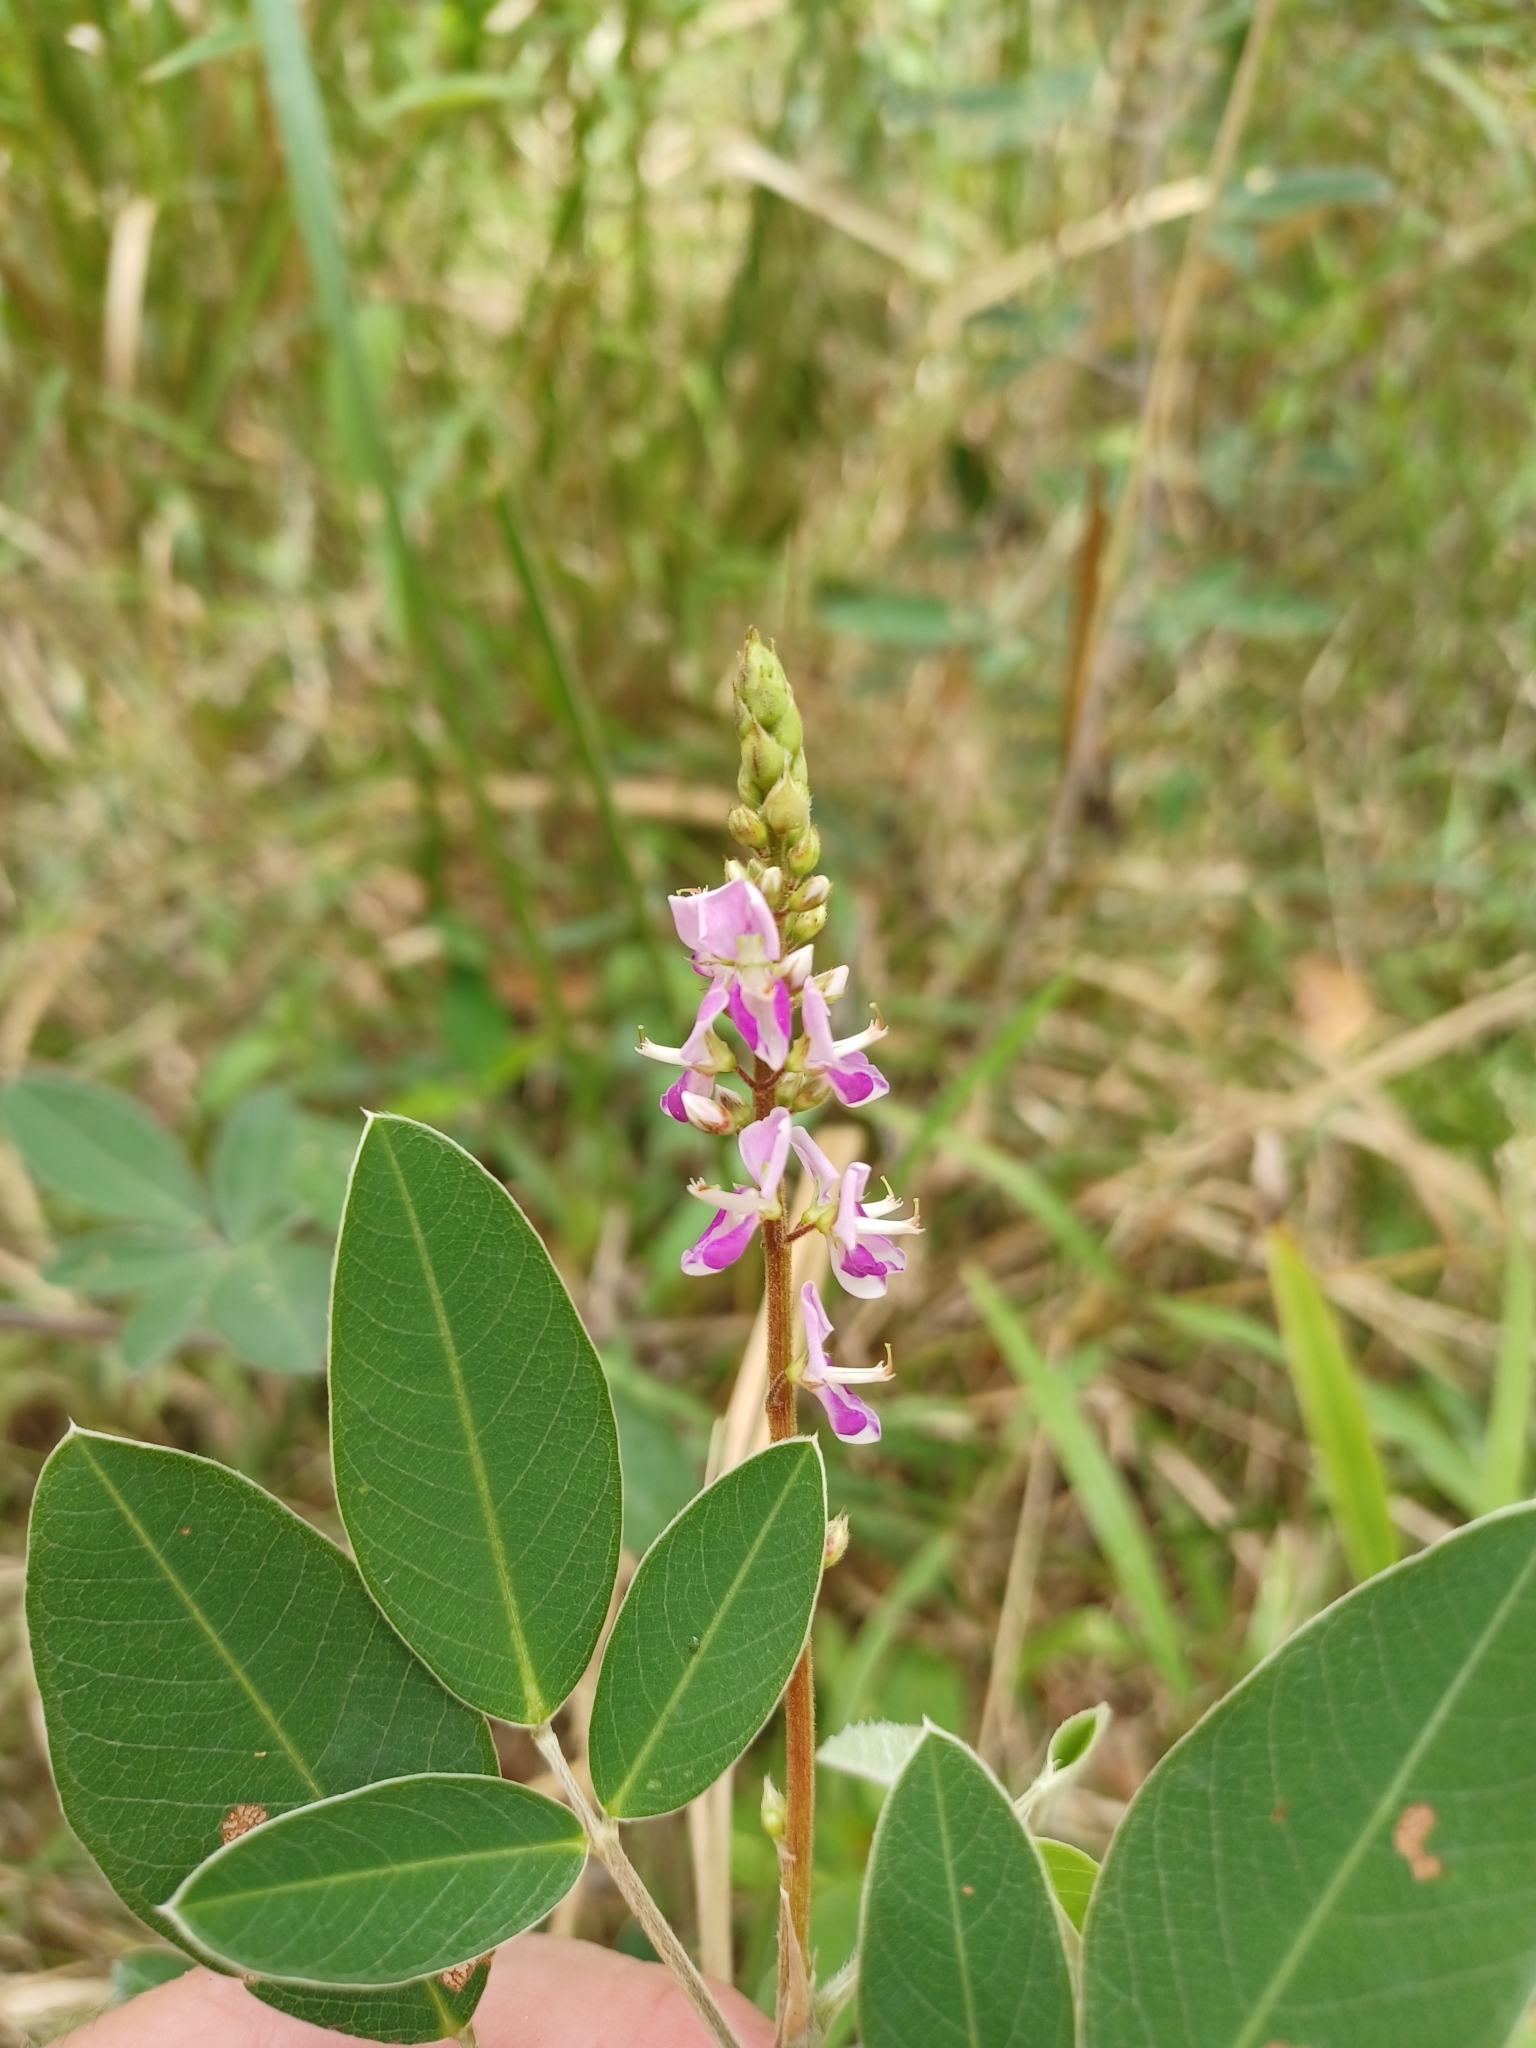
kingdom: Plantae
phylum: Tracheophyta
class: Magnoliopsida
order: Fabales
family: Fabaceae
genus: Grona
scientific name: Grona nemorosa
